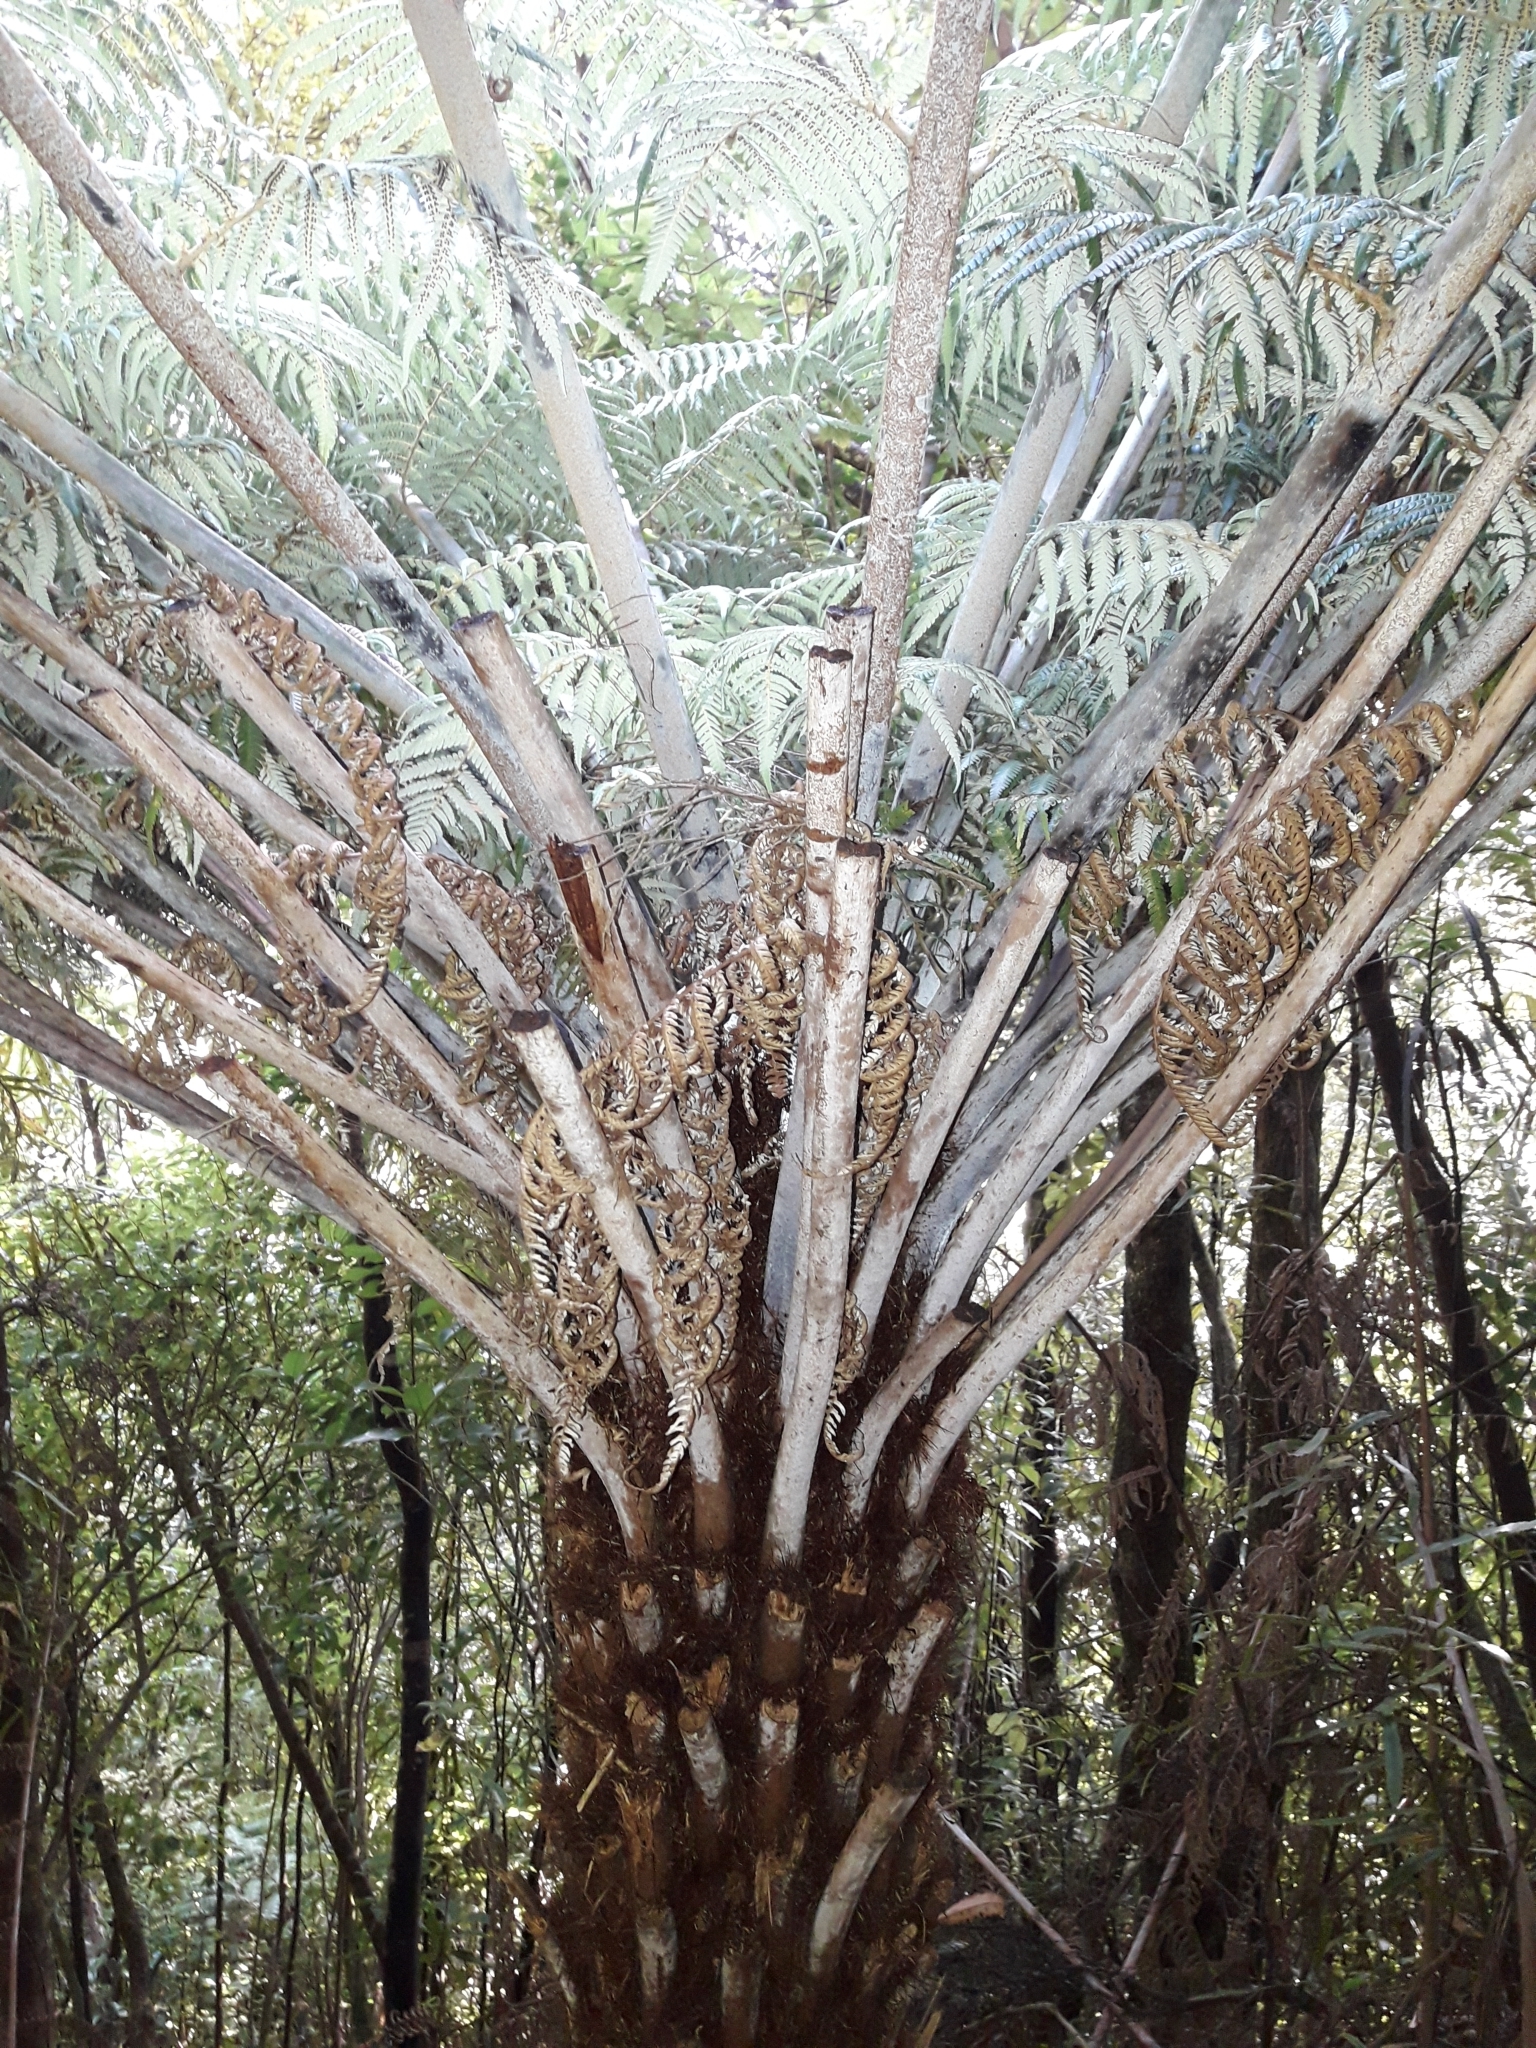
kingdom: Plantae
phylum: Tracheophyta
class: Polypodiopsida
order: Cyatheales
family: Cyatheaceae
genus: Alsophila
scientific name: Alsophila dealbata
